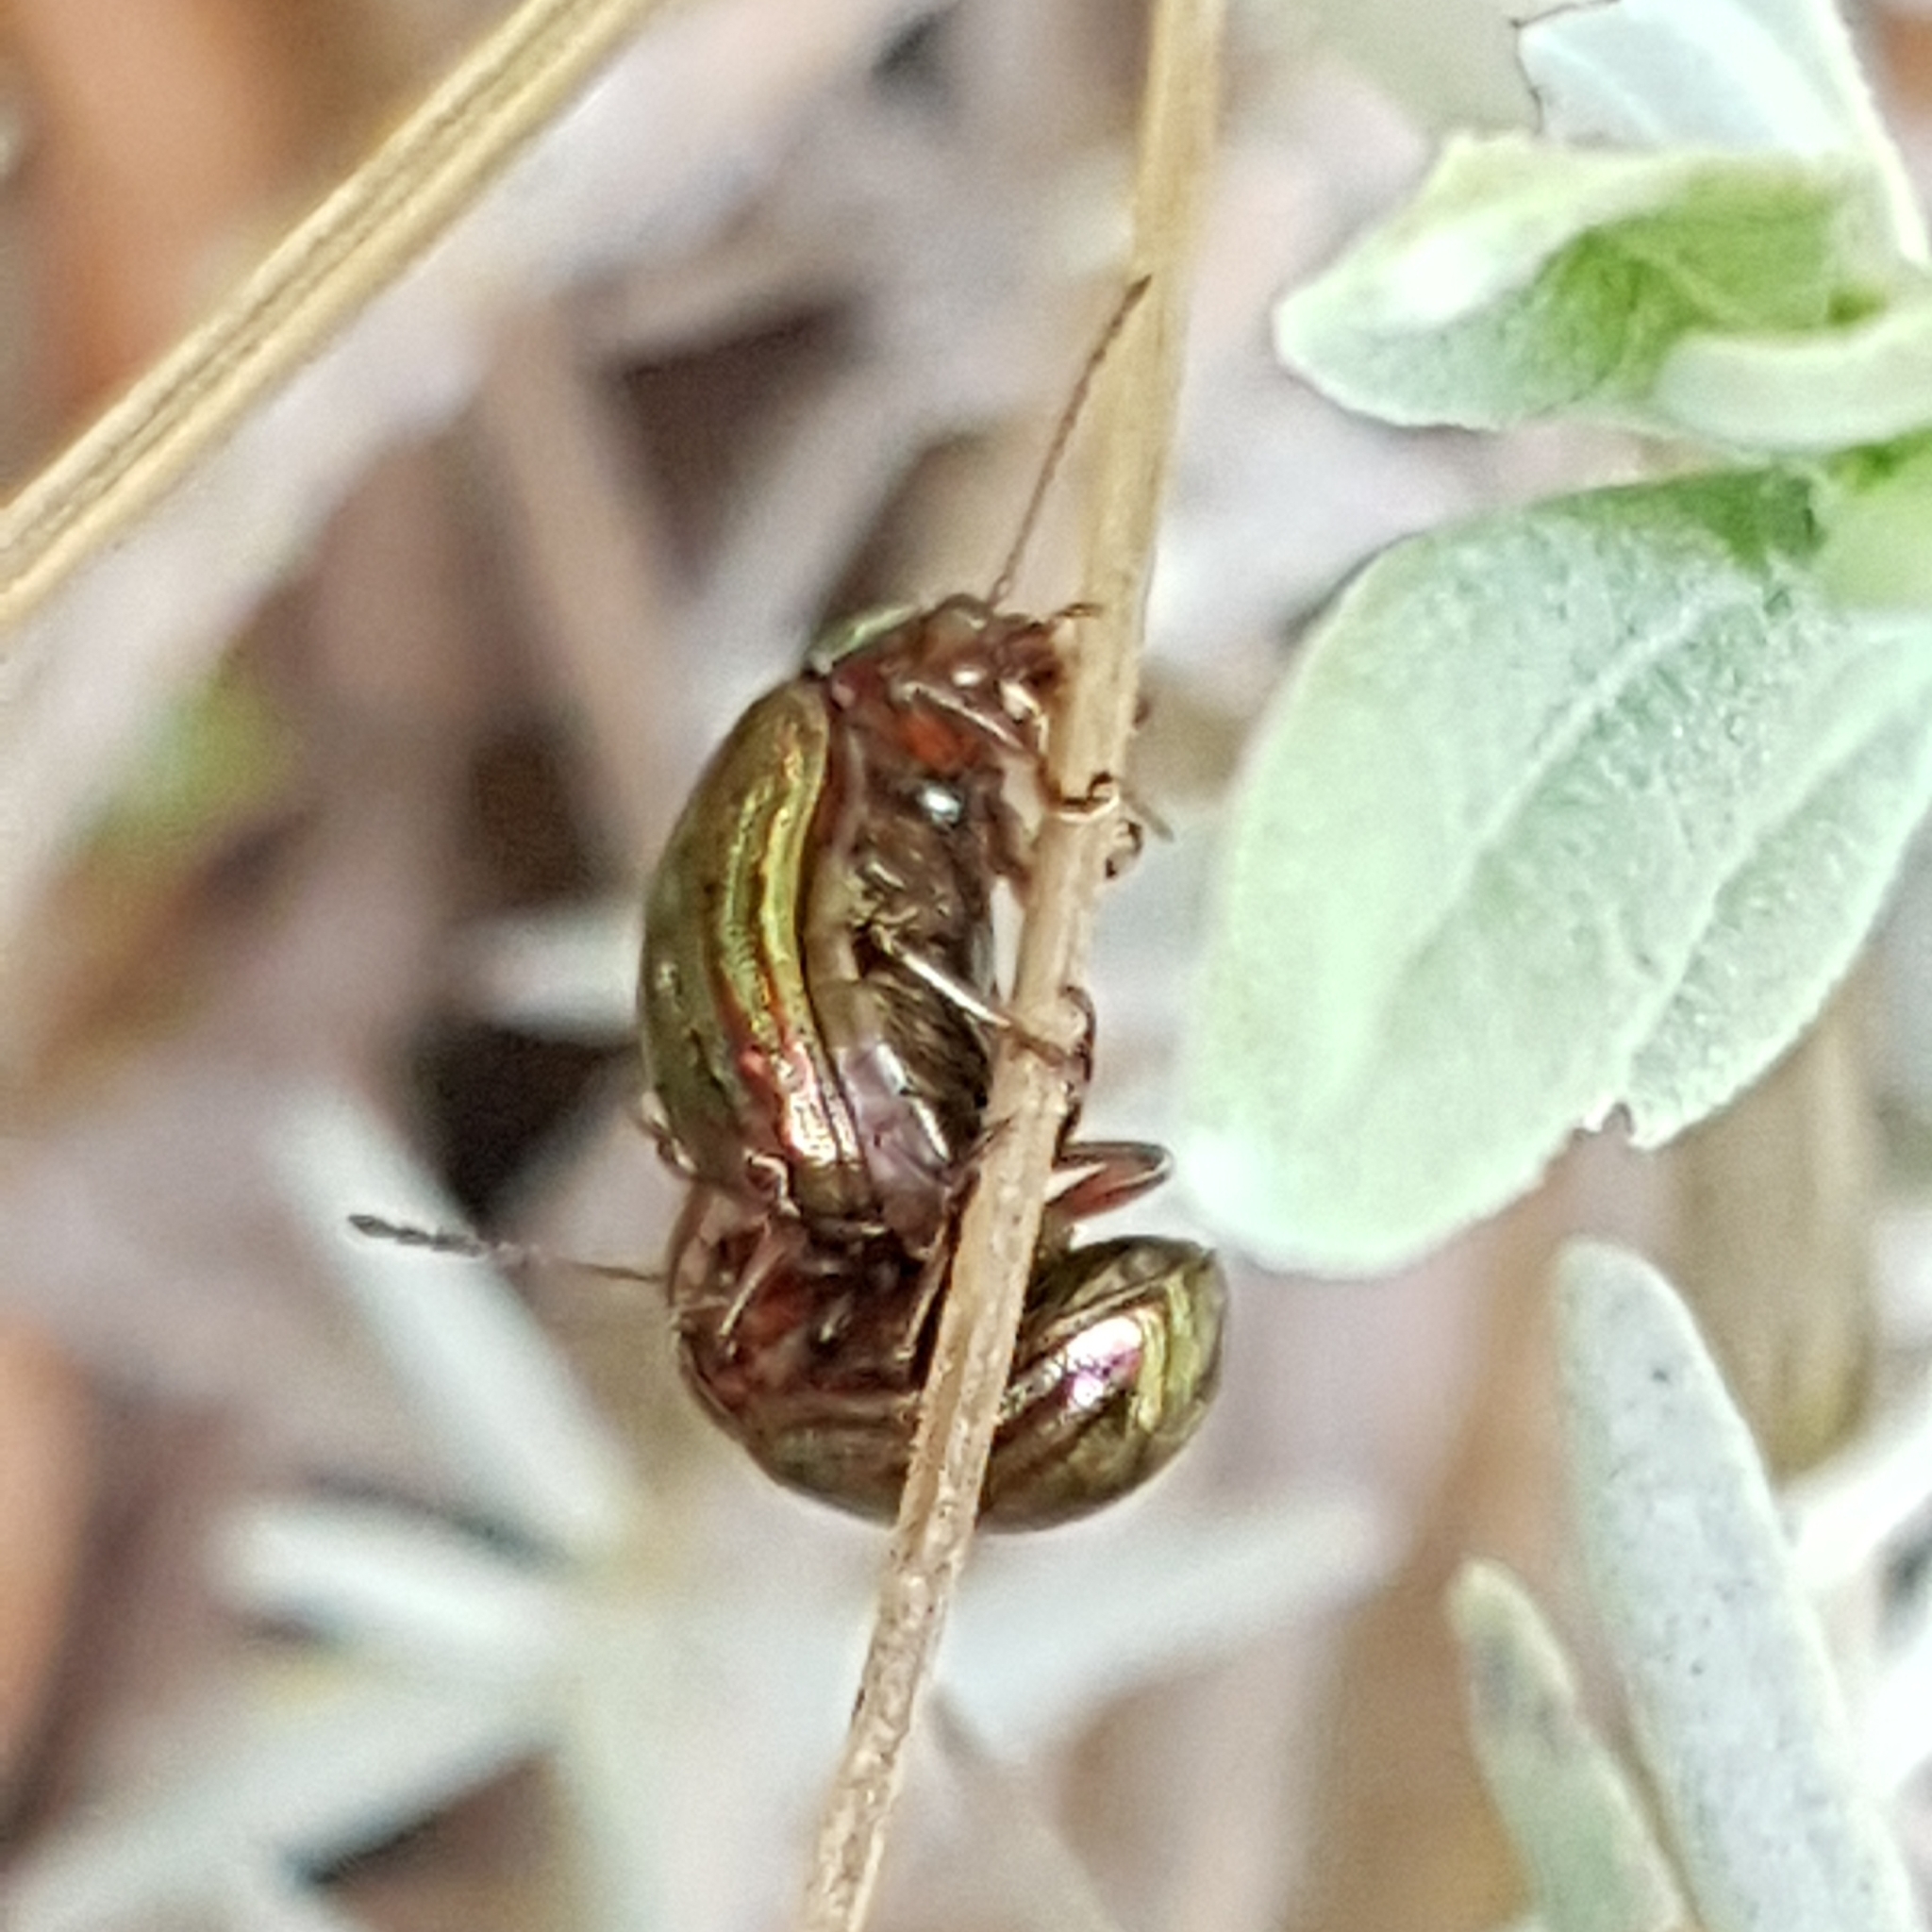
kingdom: Animalia
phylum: Arthropoda
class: Insecta
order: Coleoptera
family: Chrysomelidae
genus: Chrysolina
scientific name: Chrysolina americana
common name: Rosemary beetle
